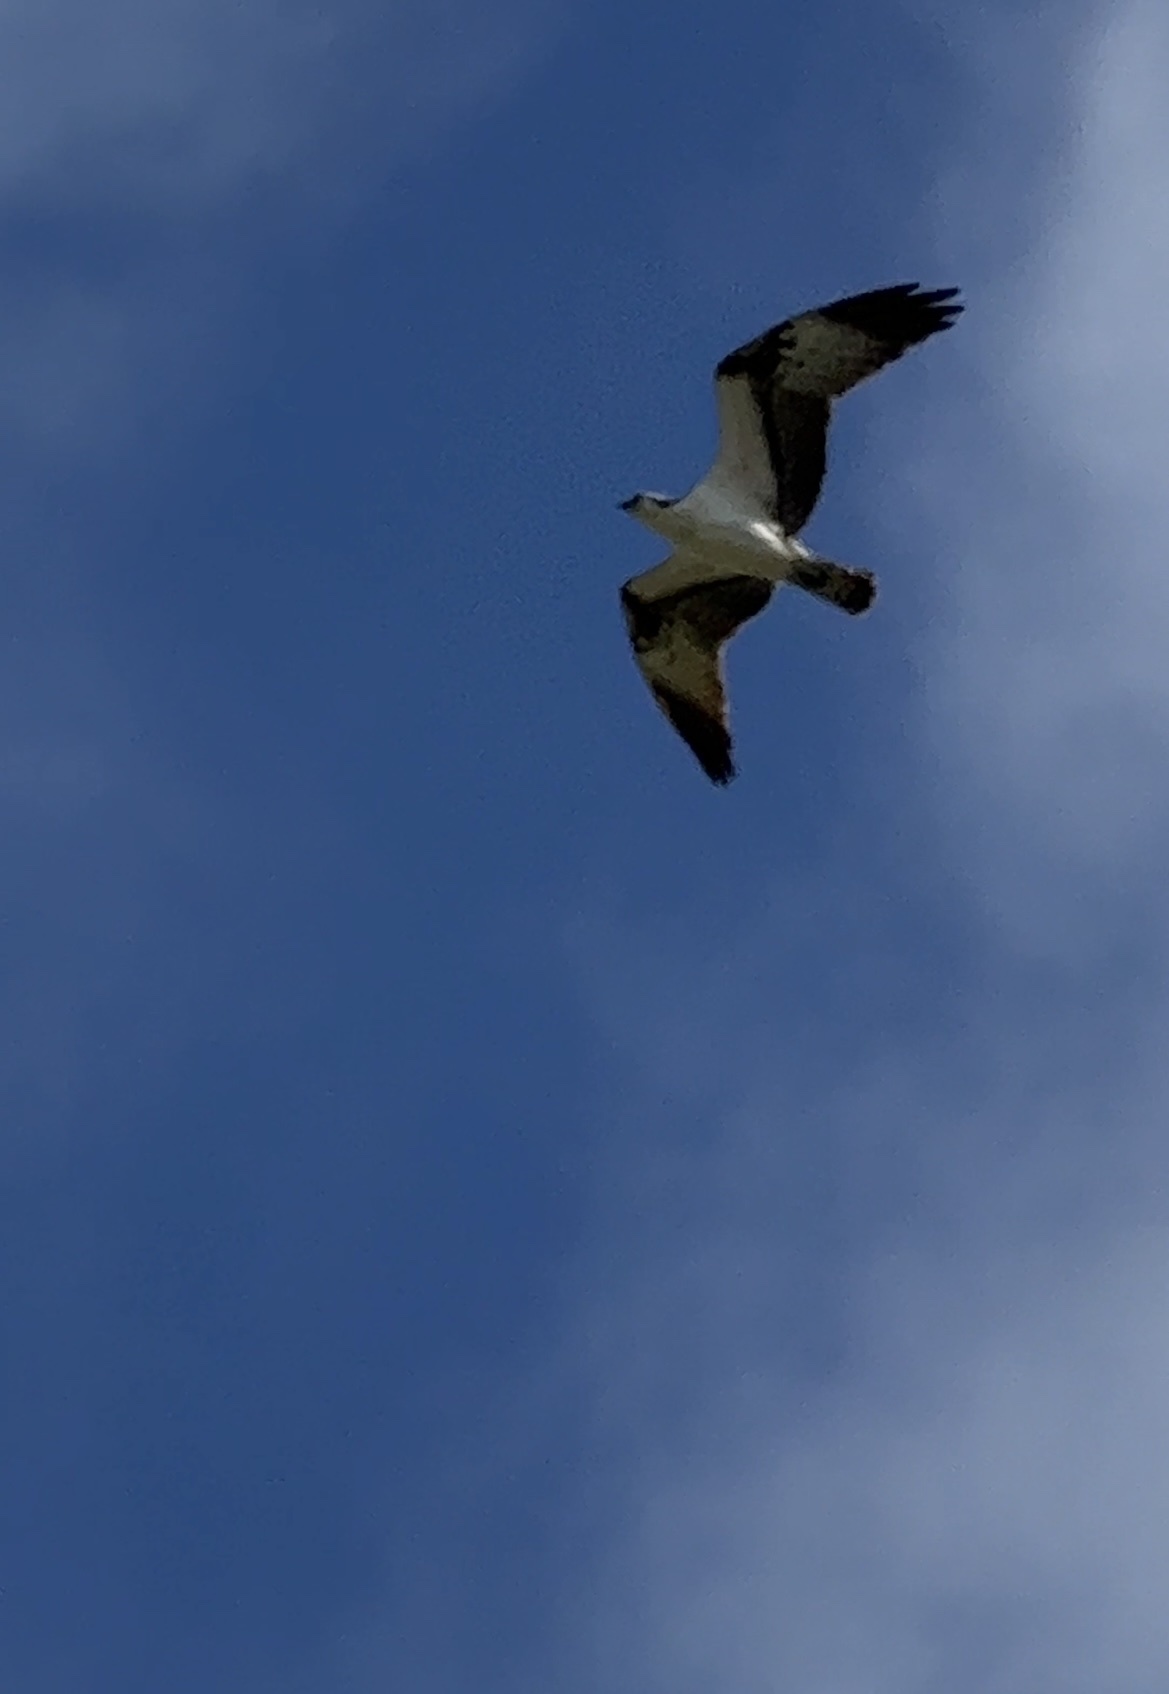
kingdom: Animalia
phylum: Chordata
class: Aves
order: Accipitriformes
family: Pandionidae
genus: Pandion
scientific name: Pandion haliaetus
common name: Osprey
